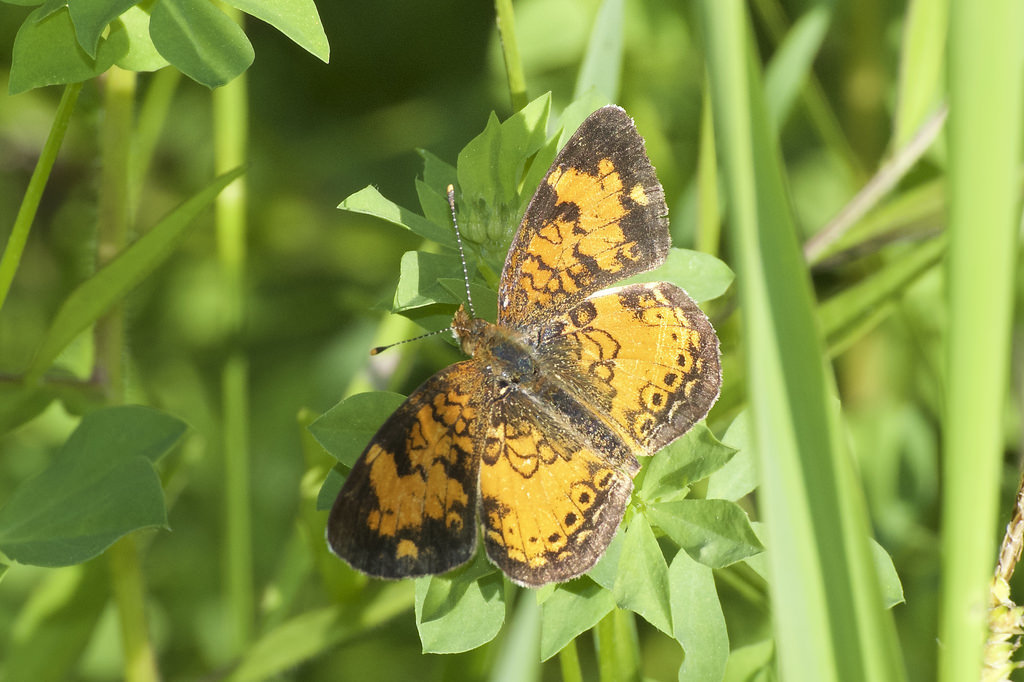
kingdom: Animalia
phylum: Arthropoda
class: Insecta
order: Lepidoptera
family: Nymphalidae
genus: Phyciodes
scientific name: Phyciodes tharos
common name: Pearl crescent
